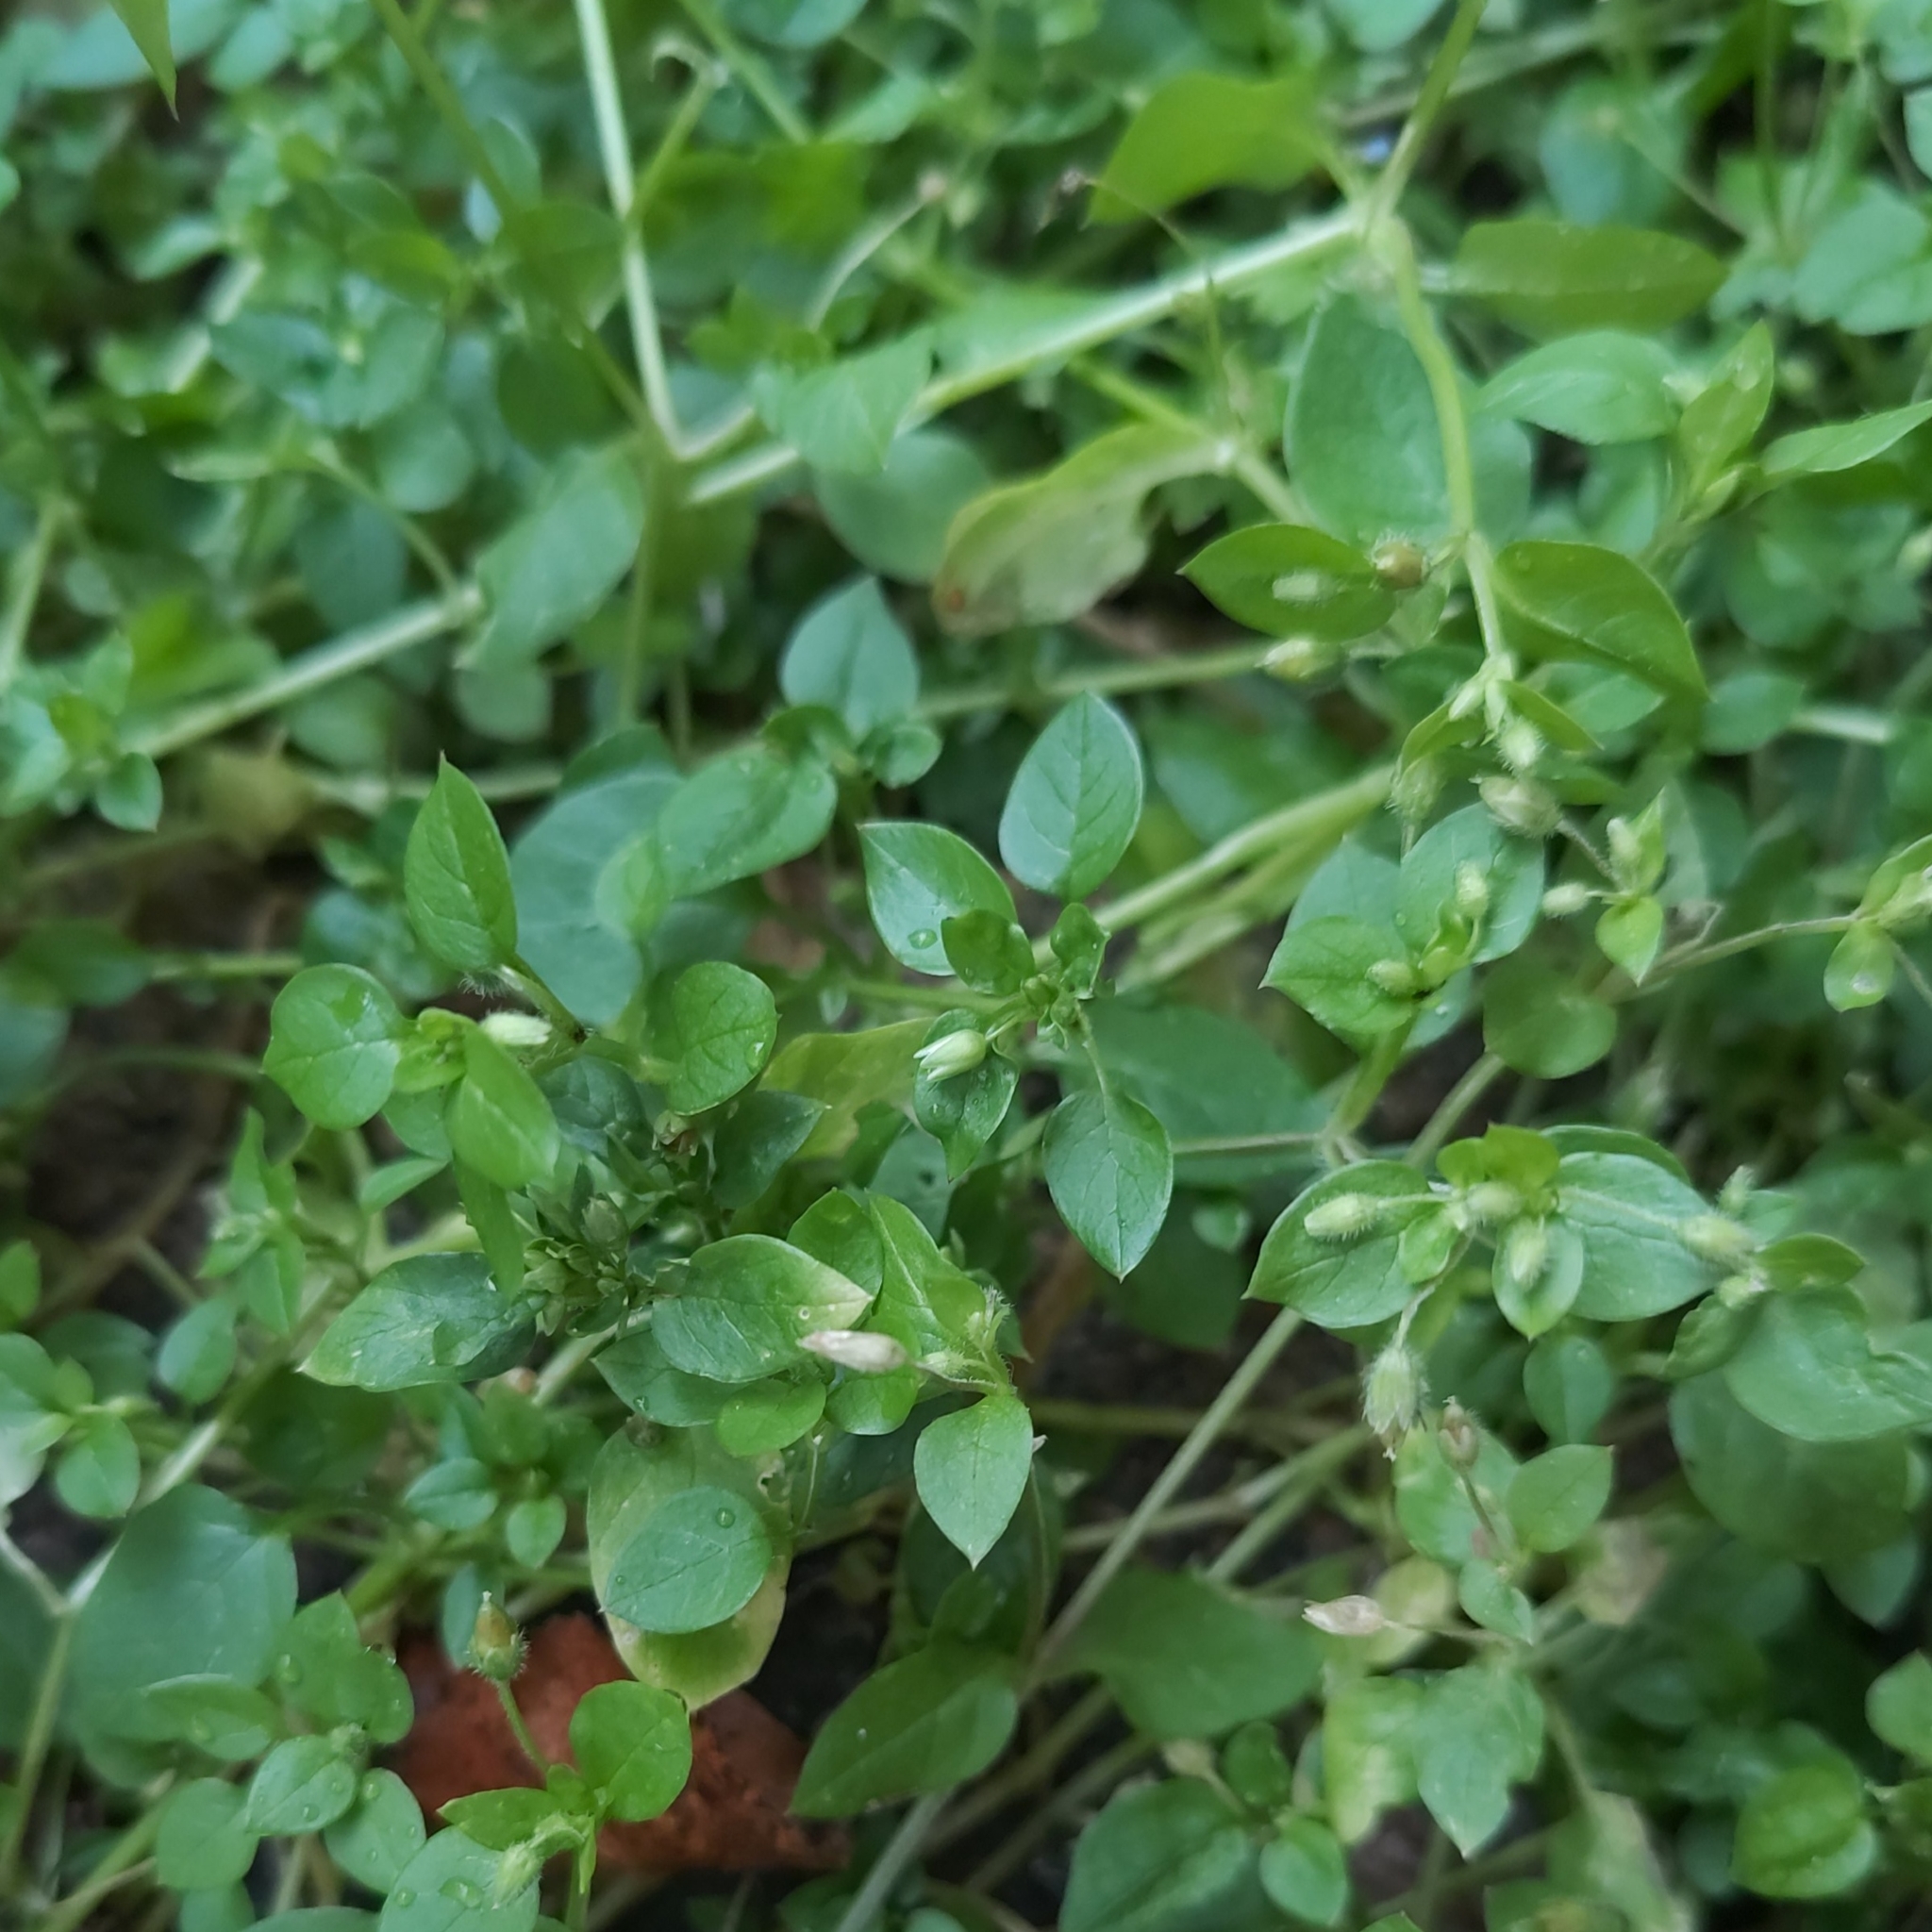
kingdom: Plantae
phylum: Tracheophyta
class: Magnoliopsida
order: Caryophyllales
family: Caryophyllaceae
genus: Stellaria
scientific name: Stellaria media
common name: Common chickweed
